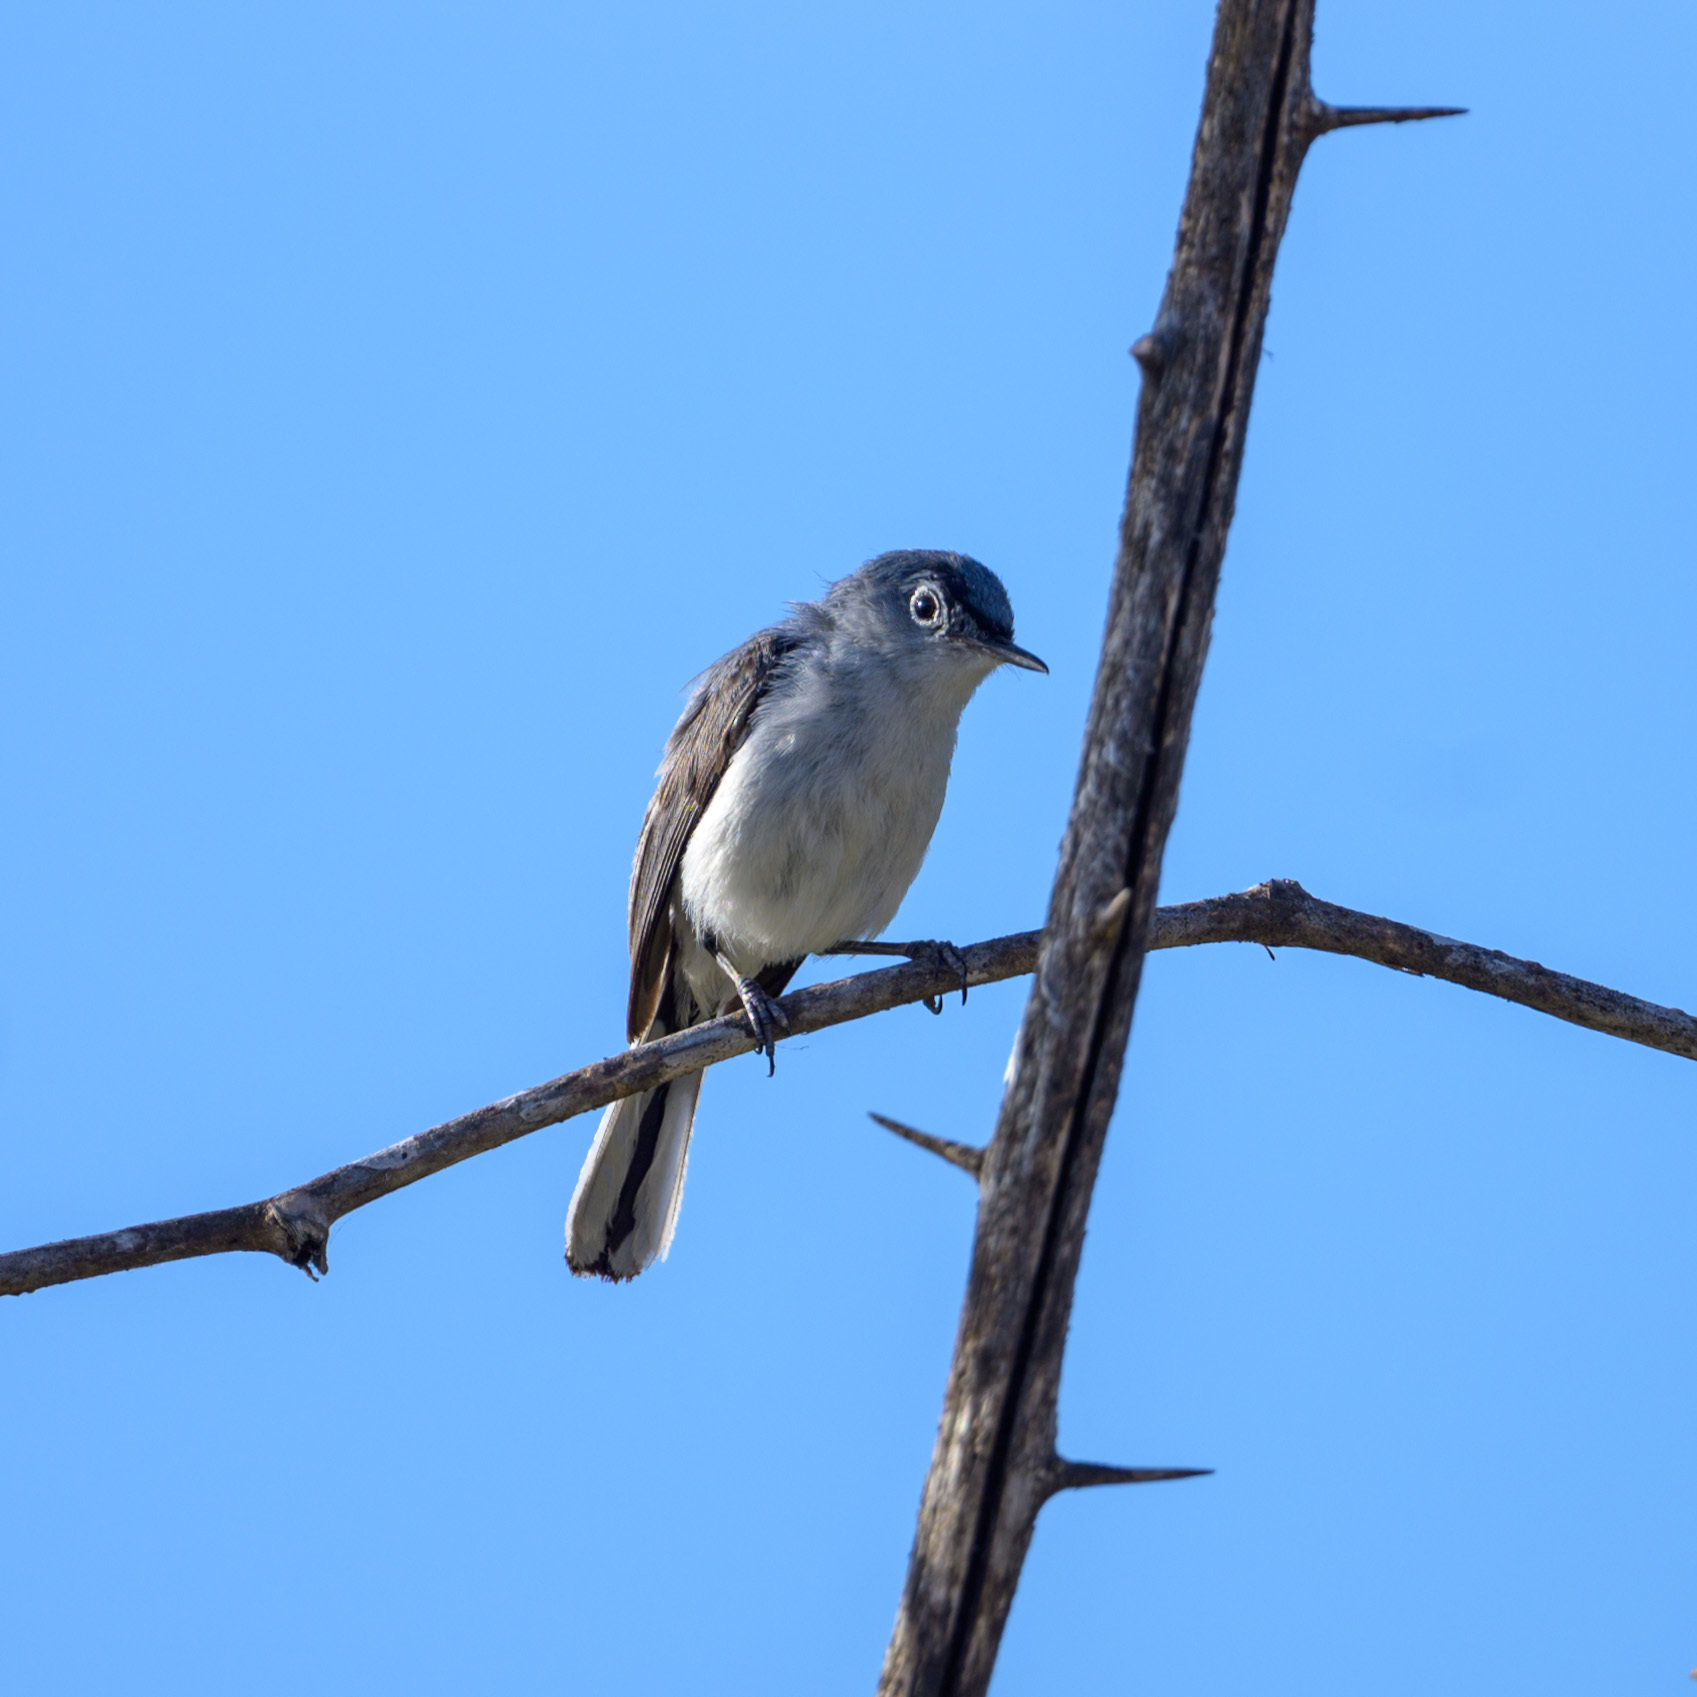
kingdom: Animalia
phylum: Chordata
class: Aves
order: Passeriformes
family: Polioptilidae
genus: Polioptila
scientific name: Polioptila caerulea
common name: Blue-gray gnatcatcher
